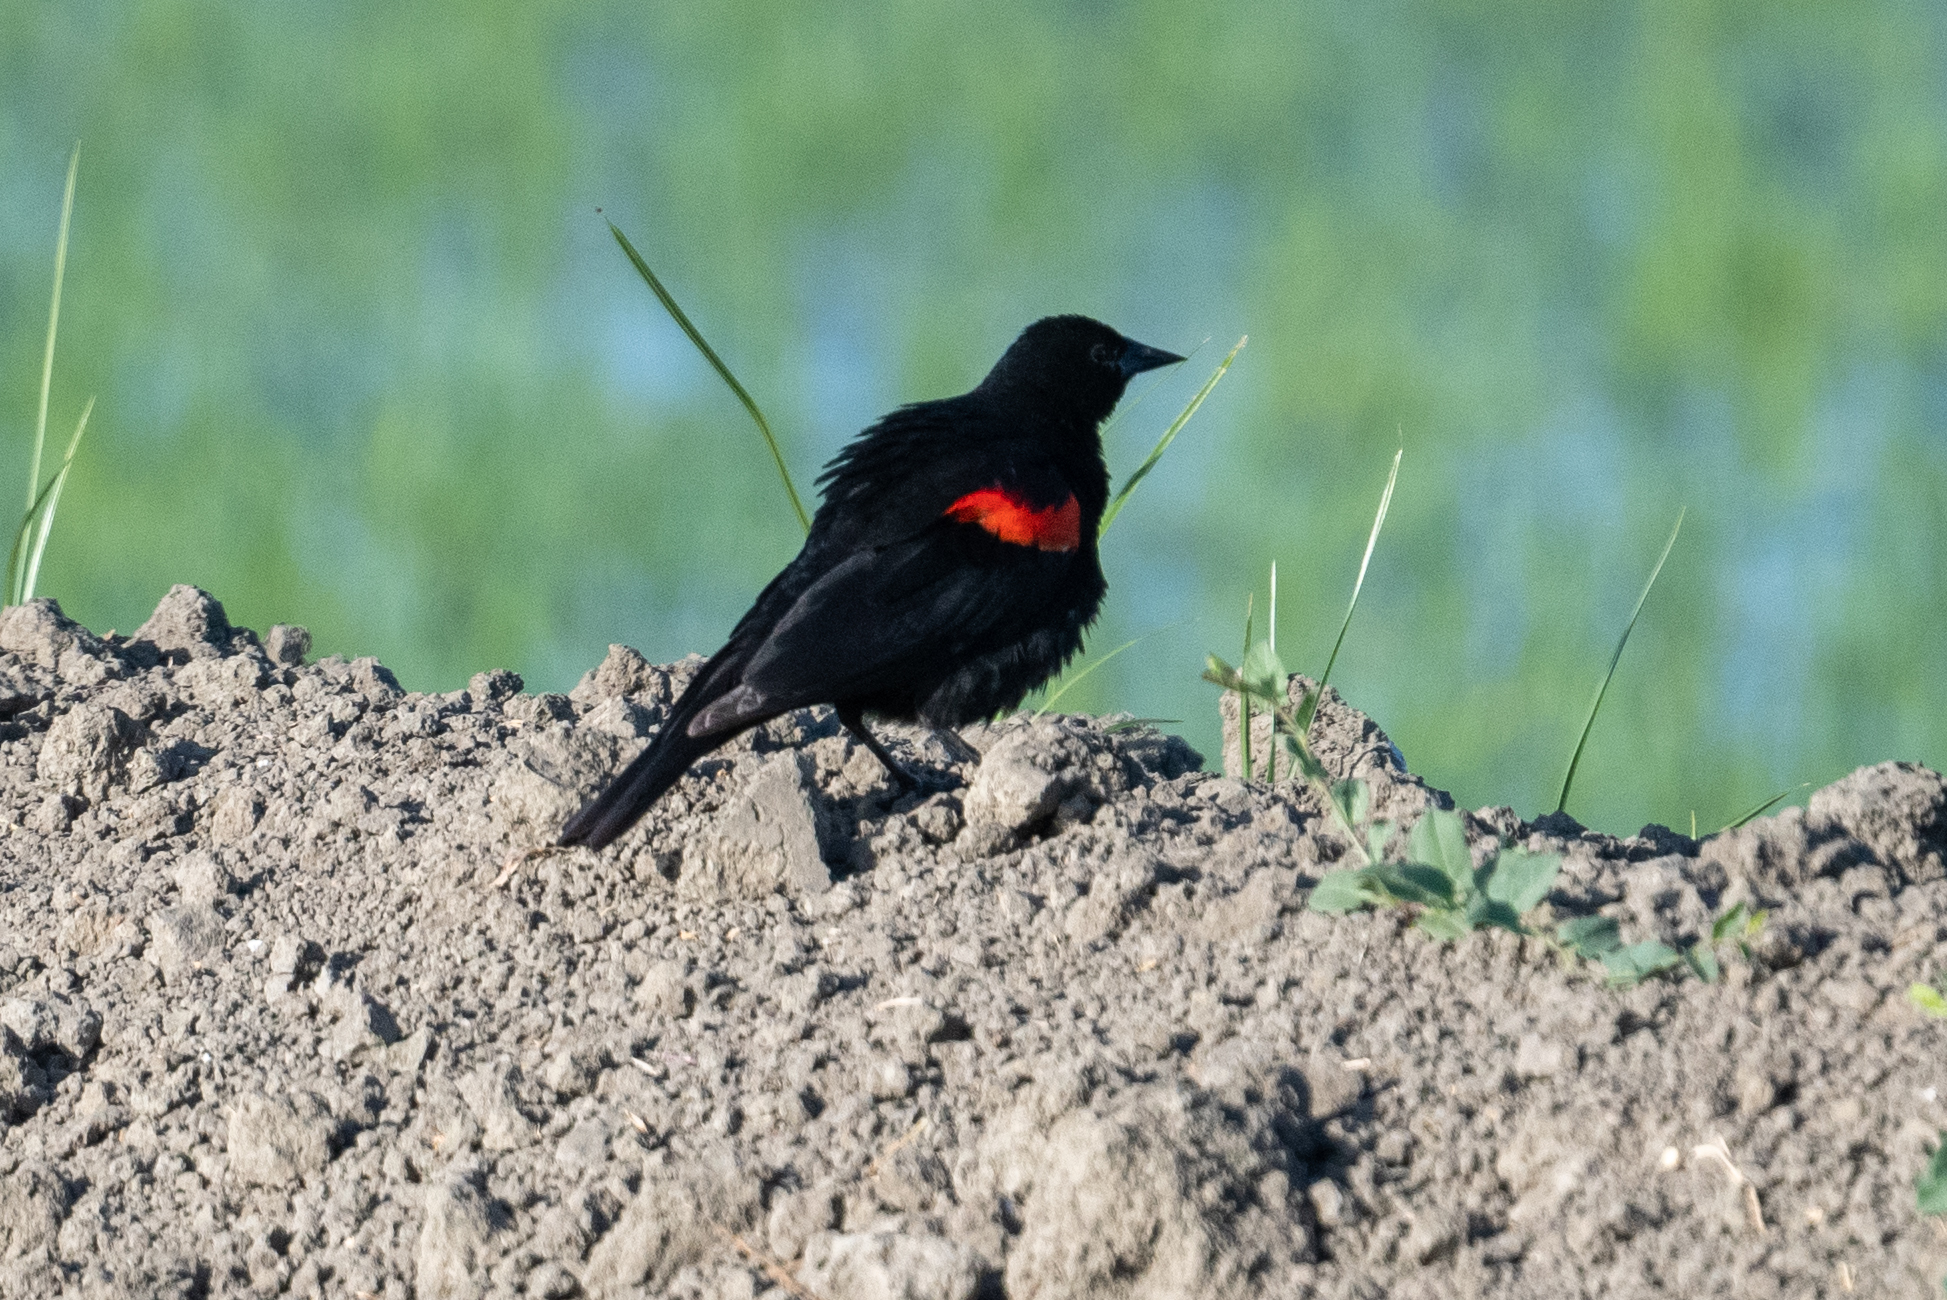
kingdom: Animalia
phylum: Chordata
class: Aves
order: Passeriformes
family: Icteridae
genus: Agelaius
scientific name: Agelaius phoeniceus
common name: Red-winged blackbird
